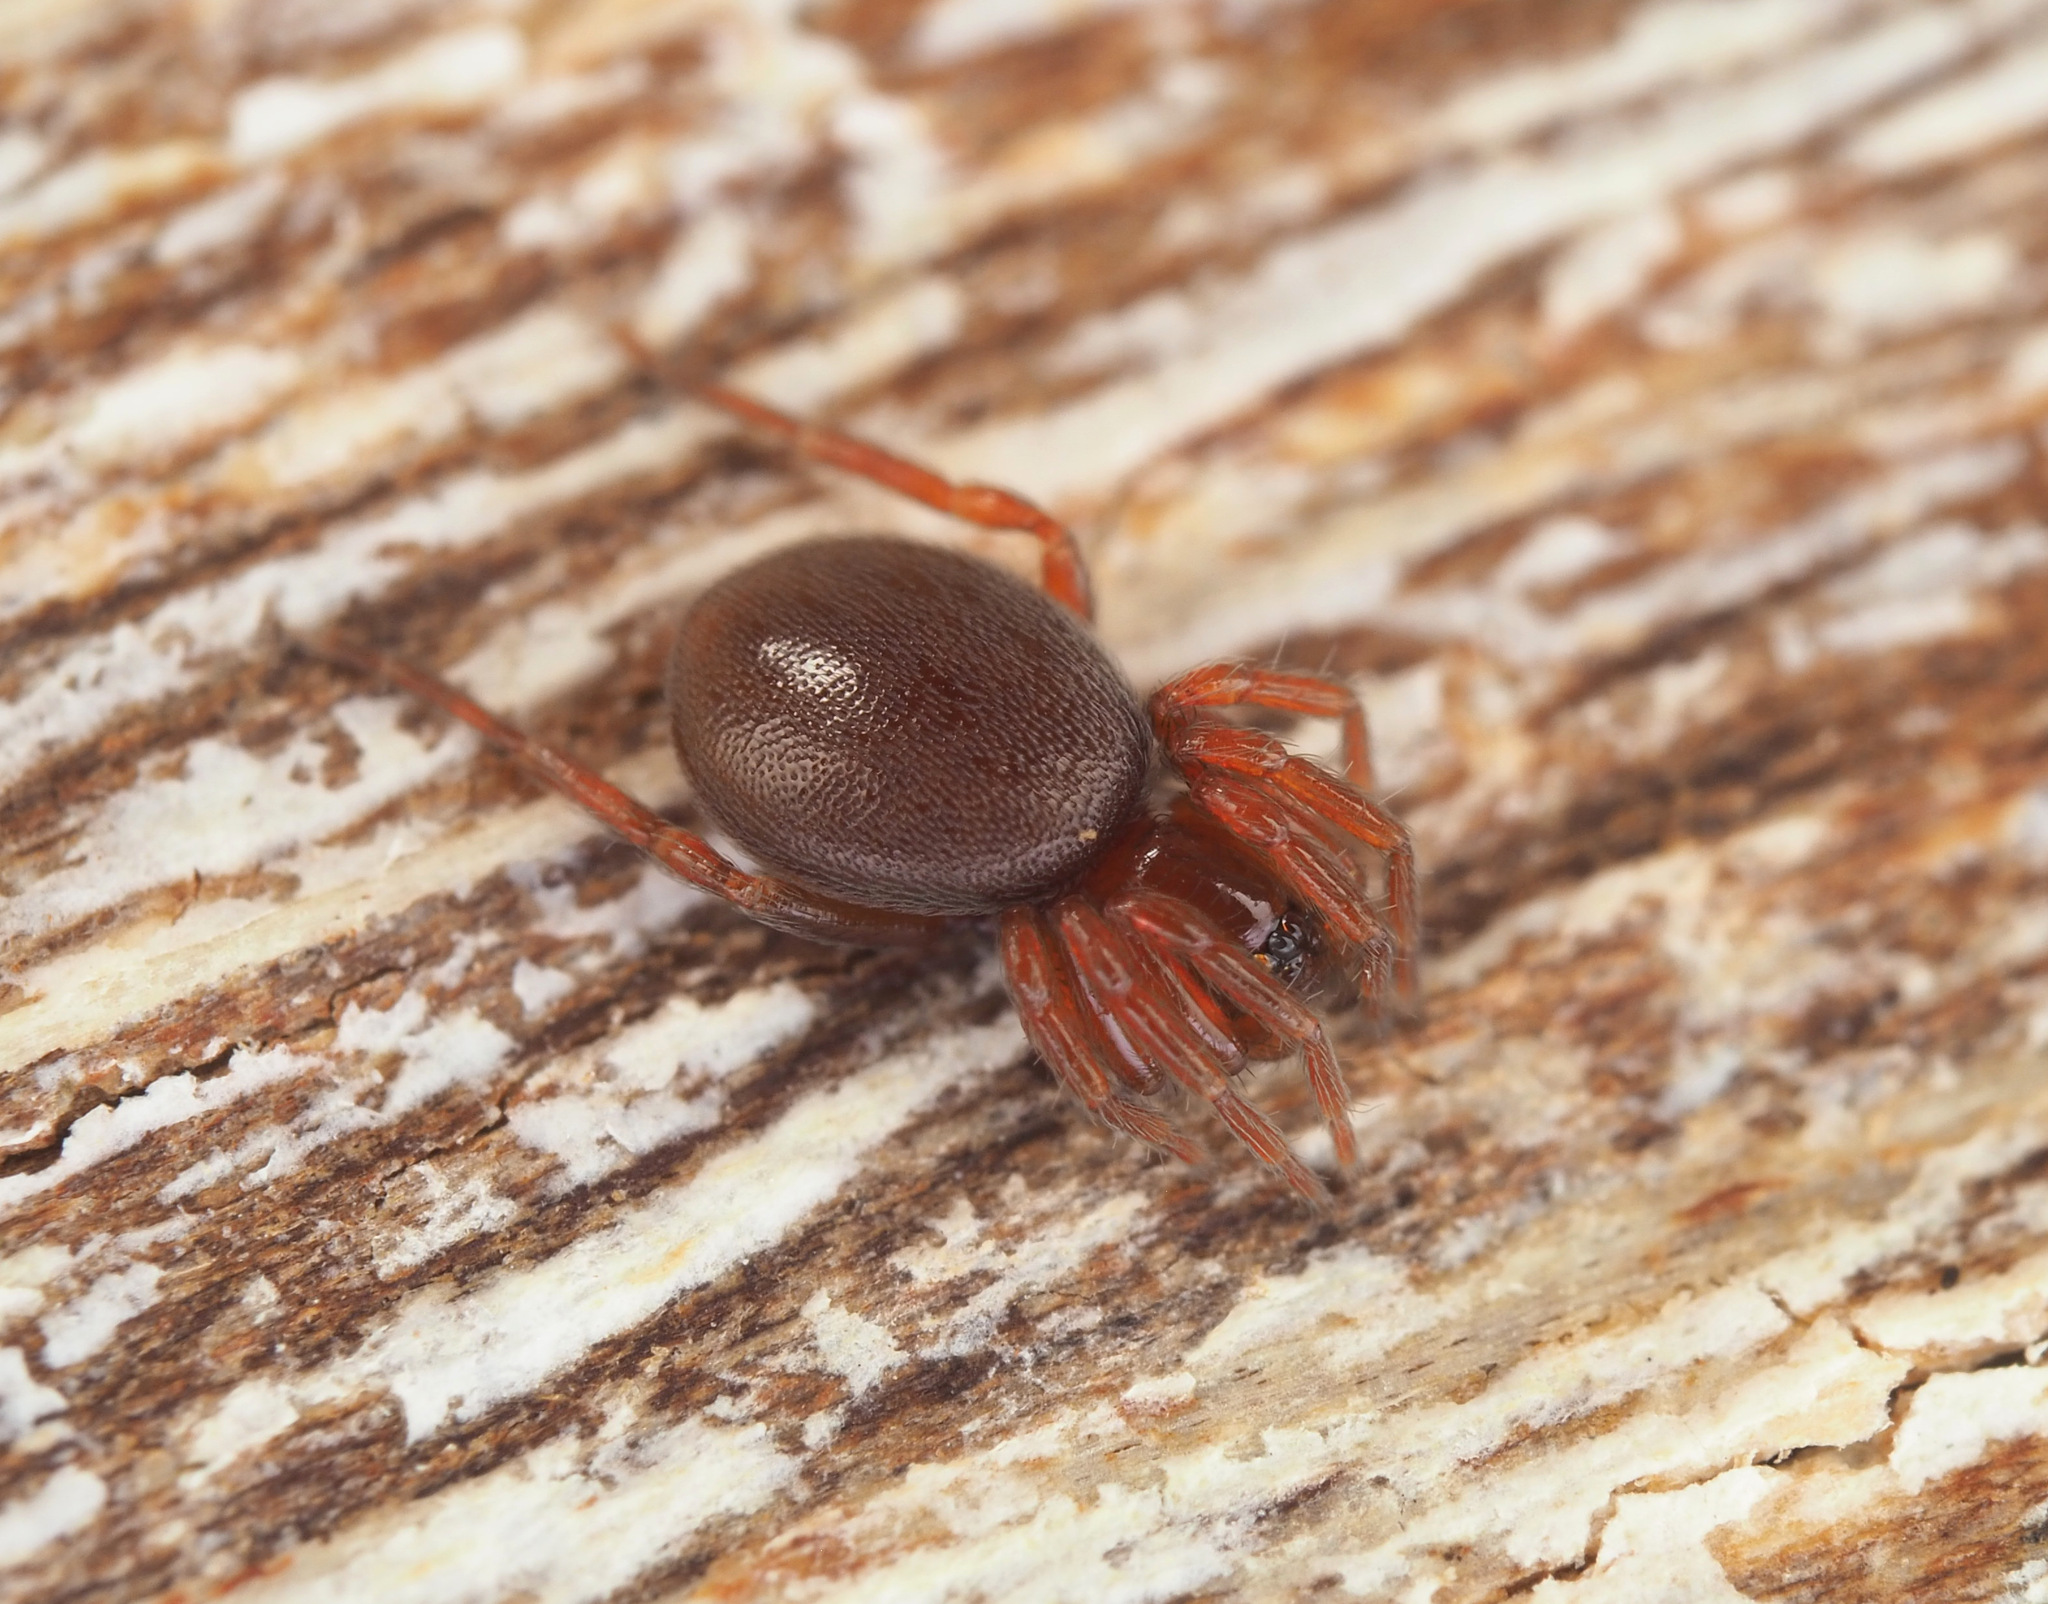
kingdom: Animalia
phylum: Arthropoda
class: Arachnida
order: Araneae
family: Oonopidae
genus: Xestaspis
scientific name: Xestaspis
